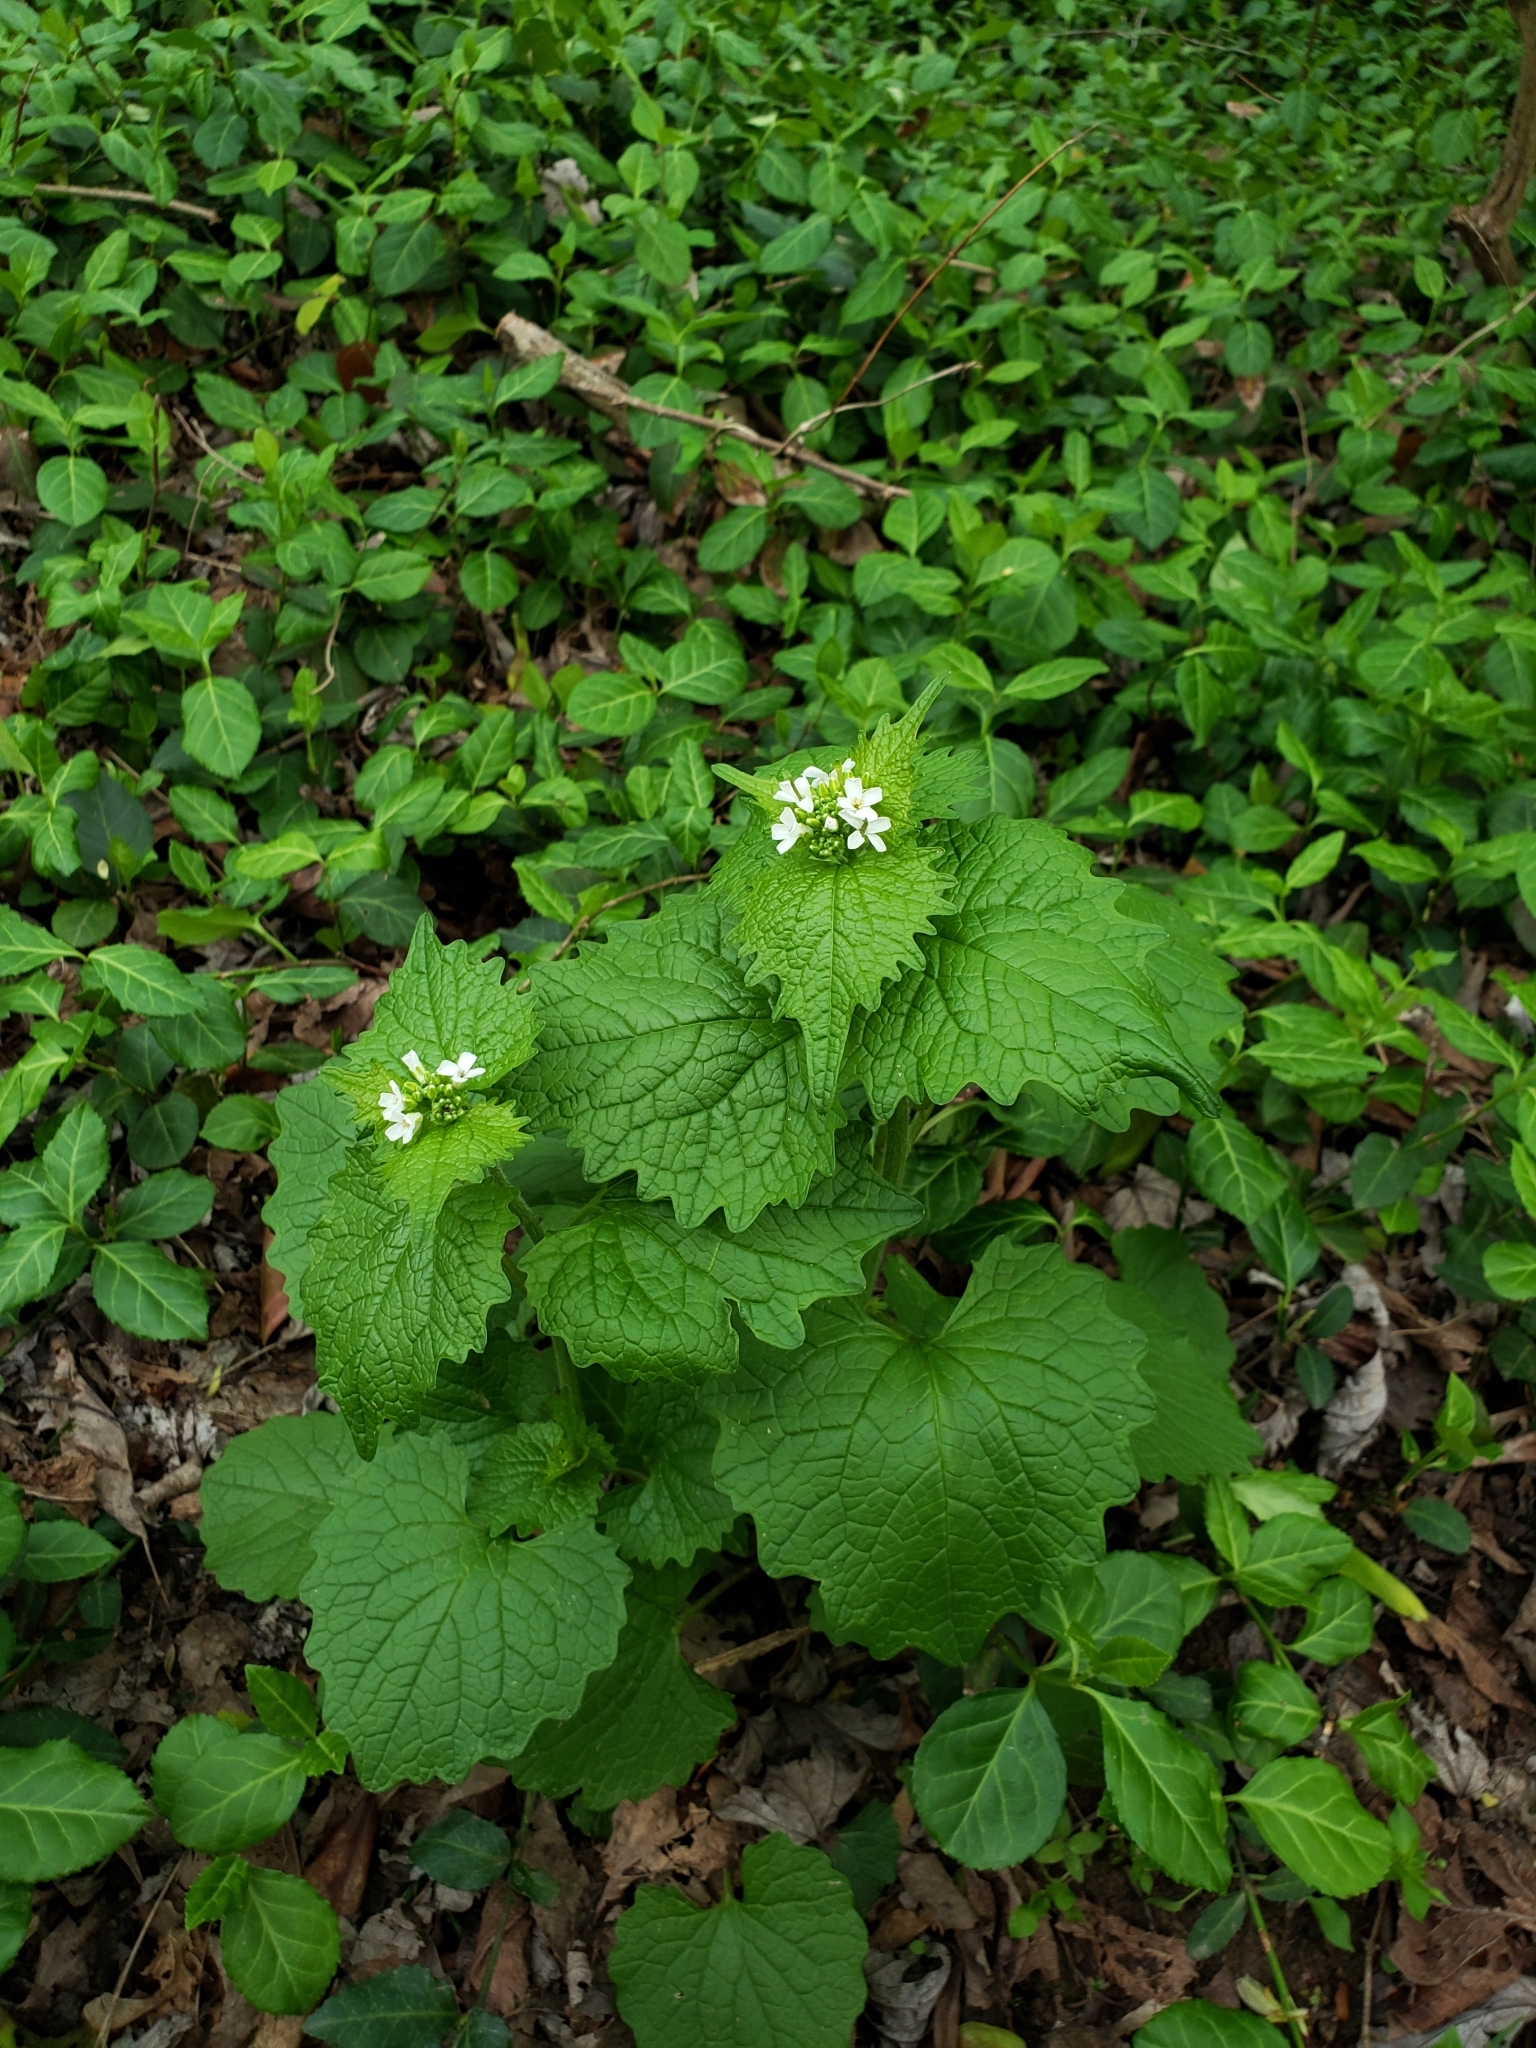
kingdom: Plantae
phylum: Tracheophyta
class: Magnoliopsida
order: Brassicales
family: Brassicaceae
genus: Alliaria
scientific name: Alliaria petiolata
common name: Garlic mustard
